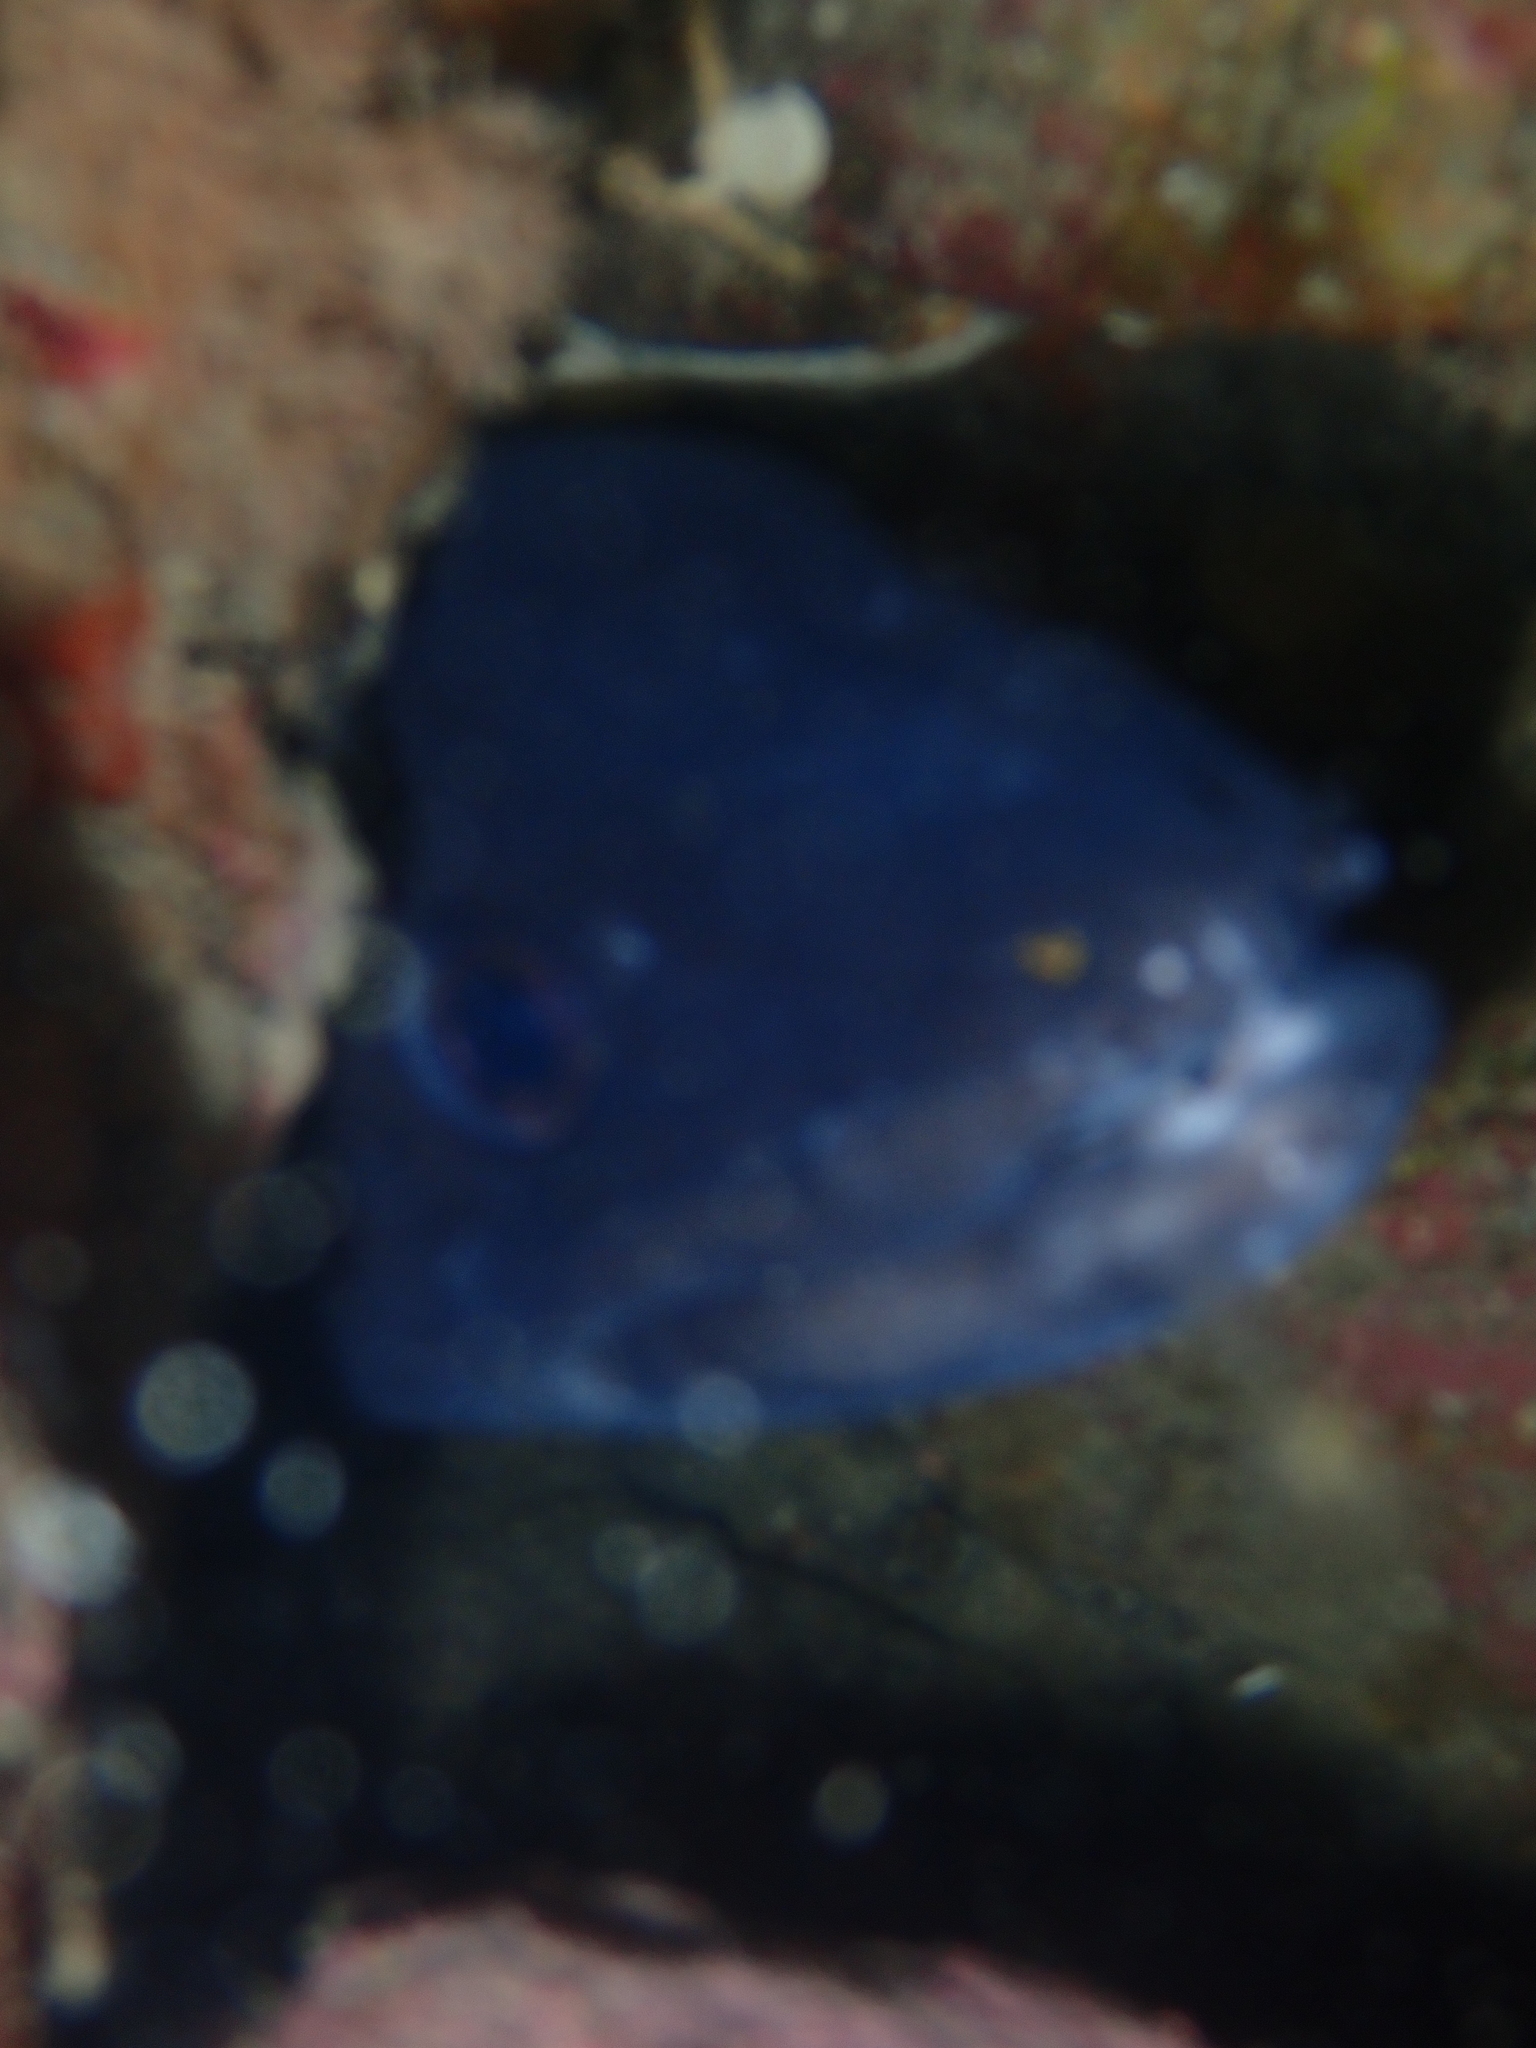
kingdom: Animalia
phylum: Chordata
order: Anguilliformes
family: Congridae
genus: Conger
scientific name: Conger verreauxi
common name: Conger eel
